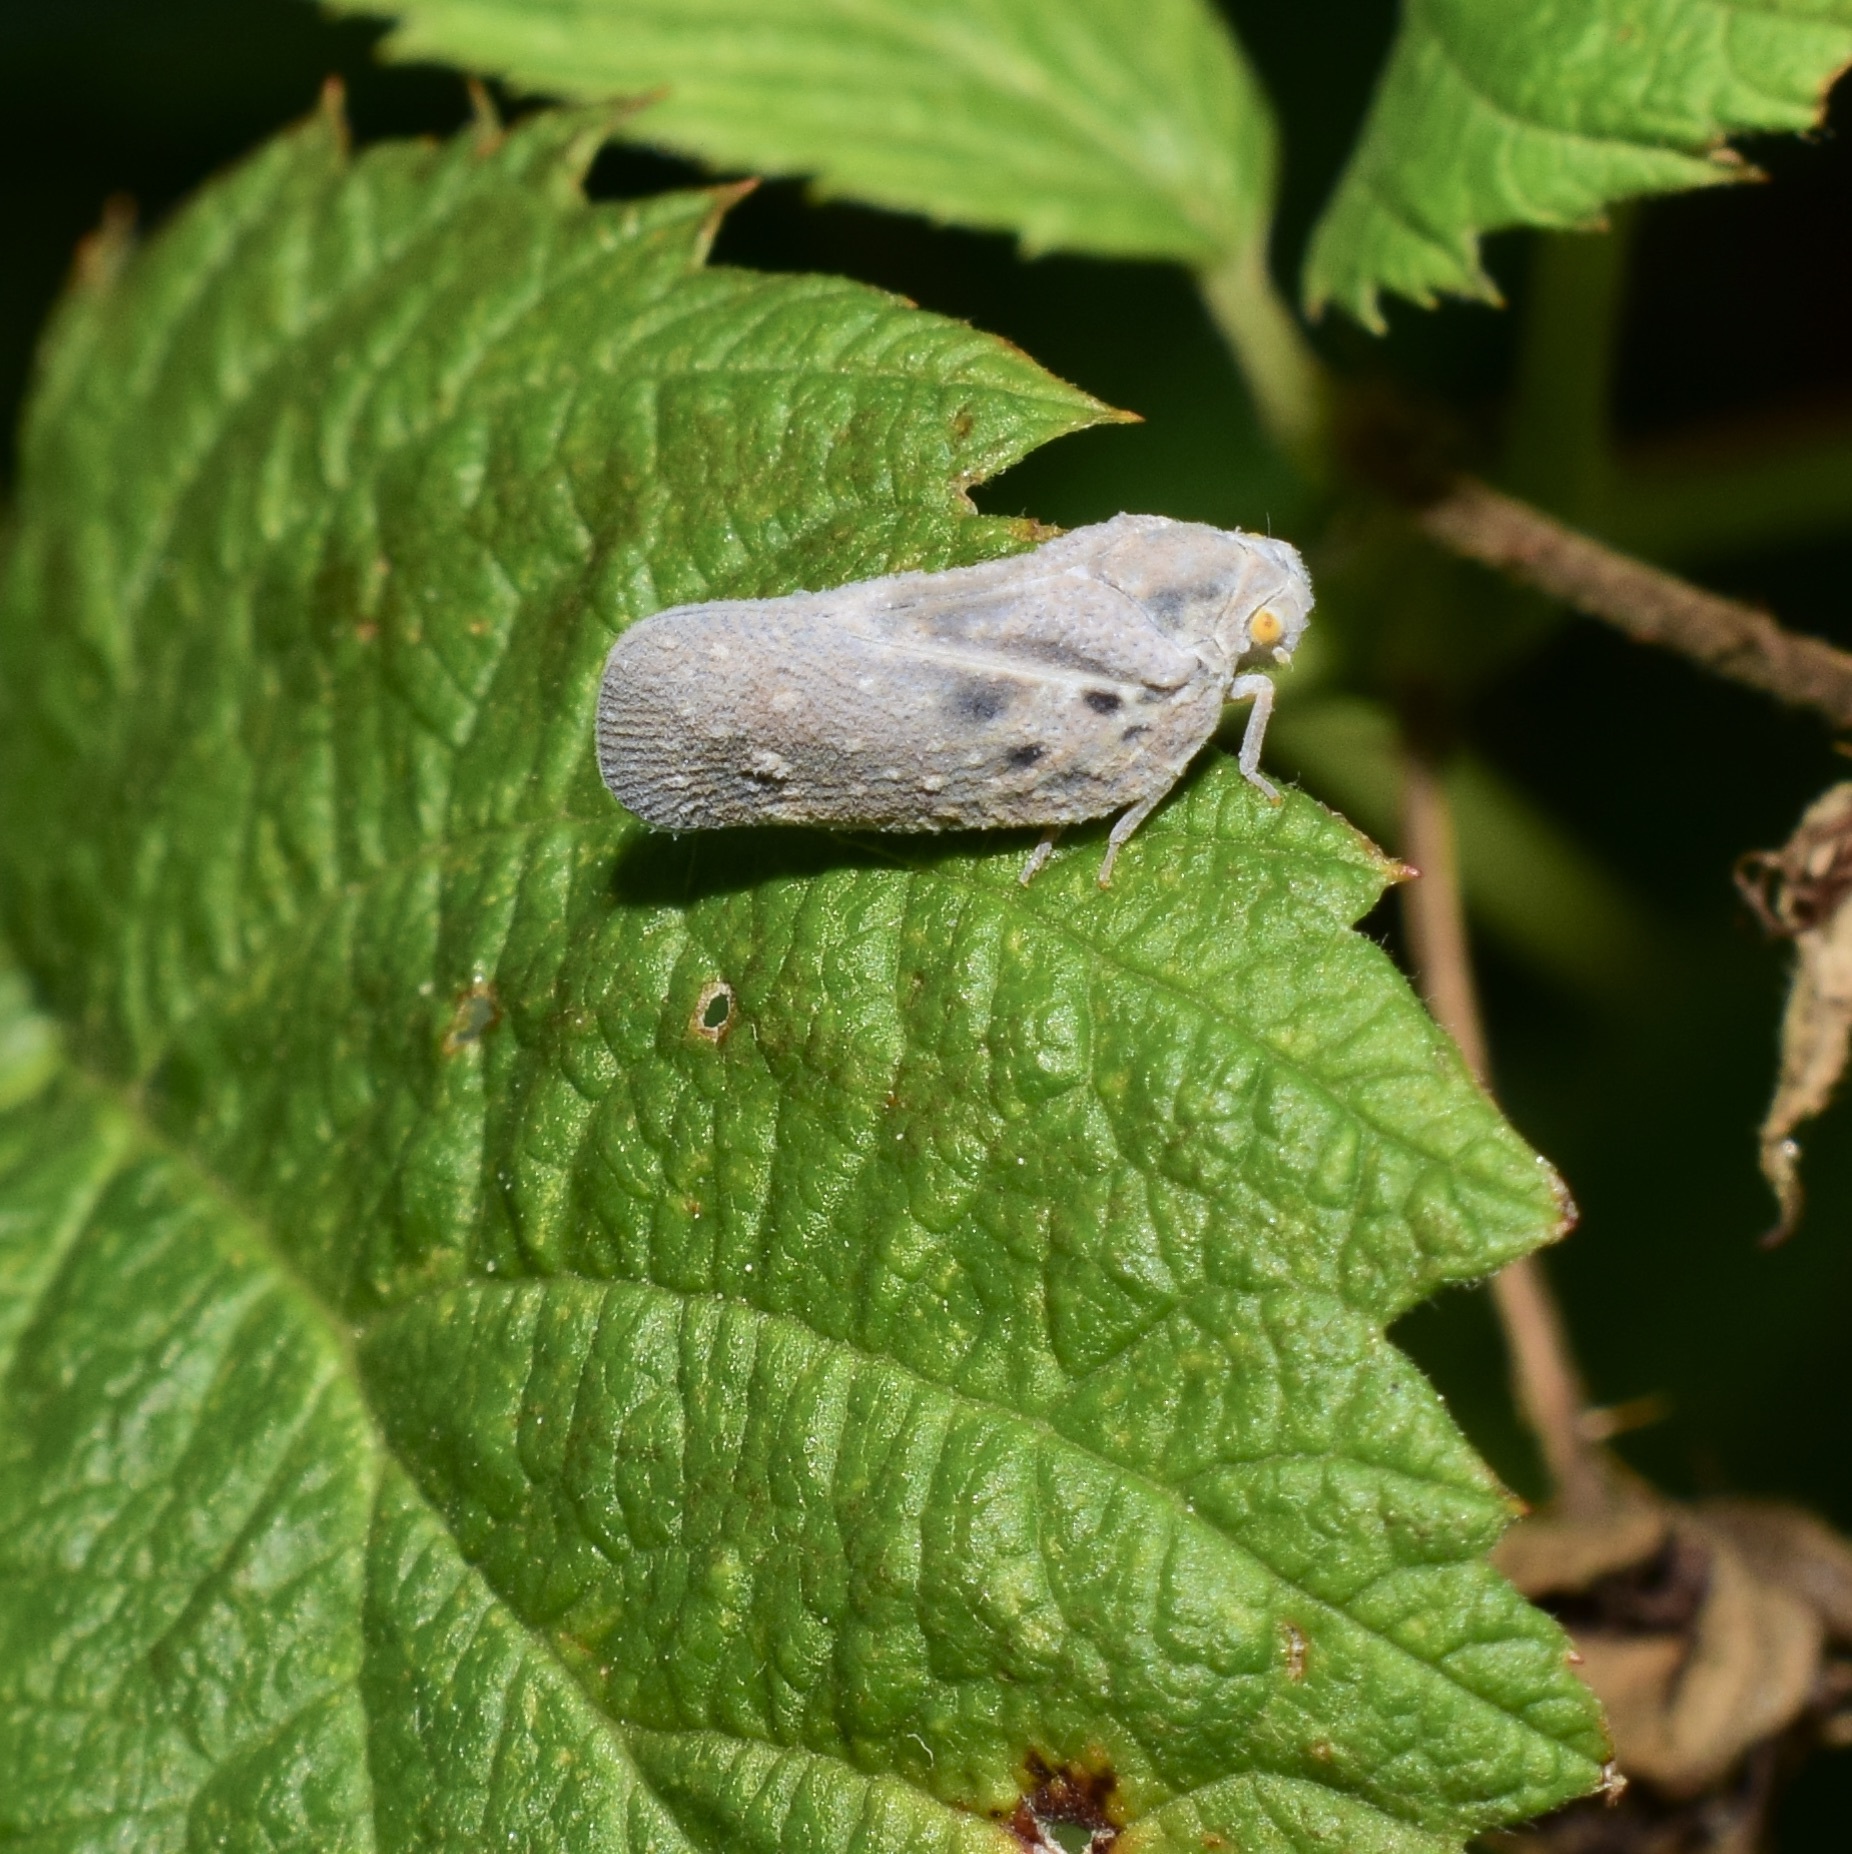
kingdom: Animalia
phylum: Arthropoda
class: Insecta
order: Hemiptera
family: Flatidae
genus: Metcalfa
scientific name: Metcalfa pruinosa
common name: Citrus flatid planthopper
